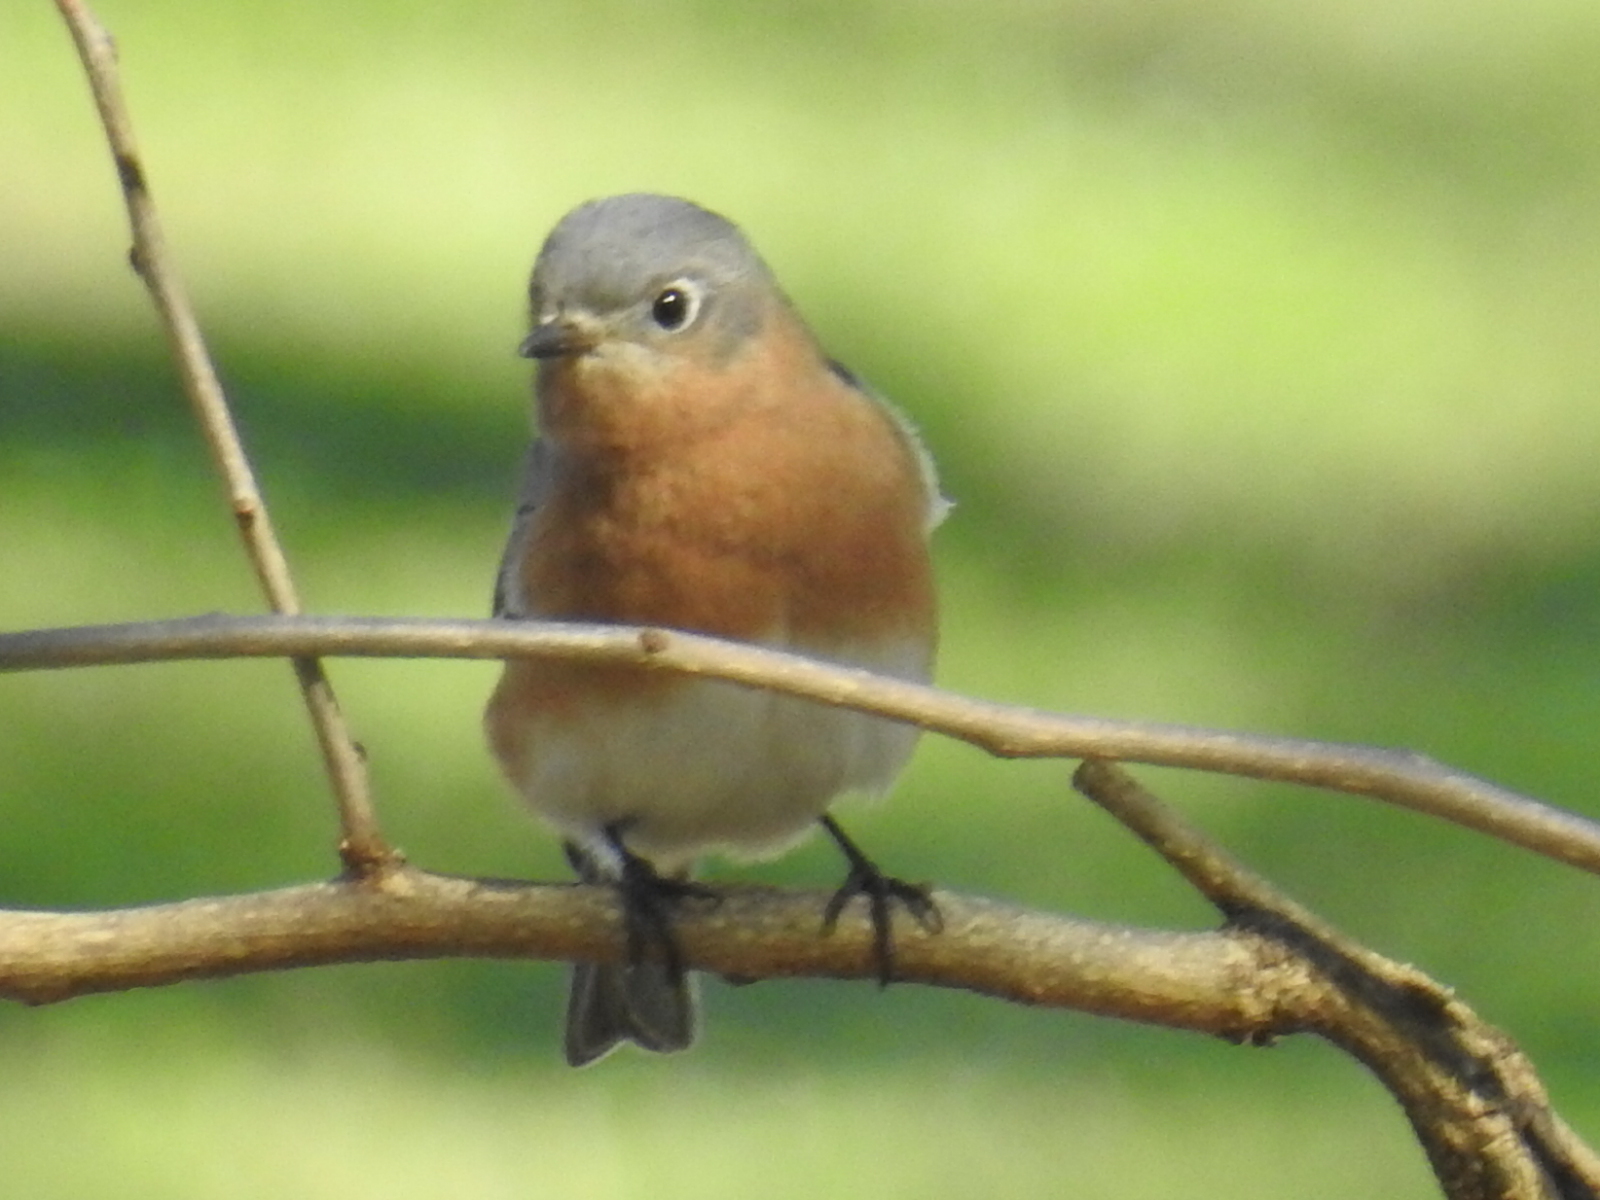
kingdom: Animalia
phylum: Chordata
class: Aves
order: Passeriformes
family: Turdidae
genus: Sialia
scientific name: Sialia sialis
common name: Eastern bluebird
